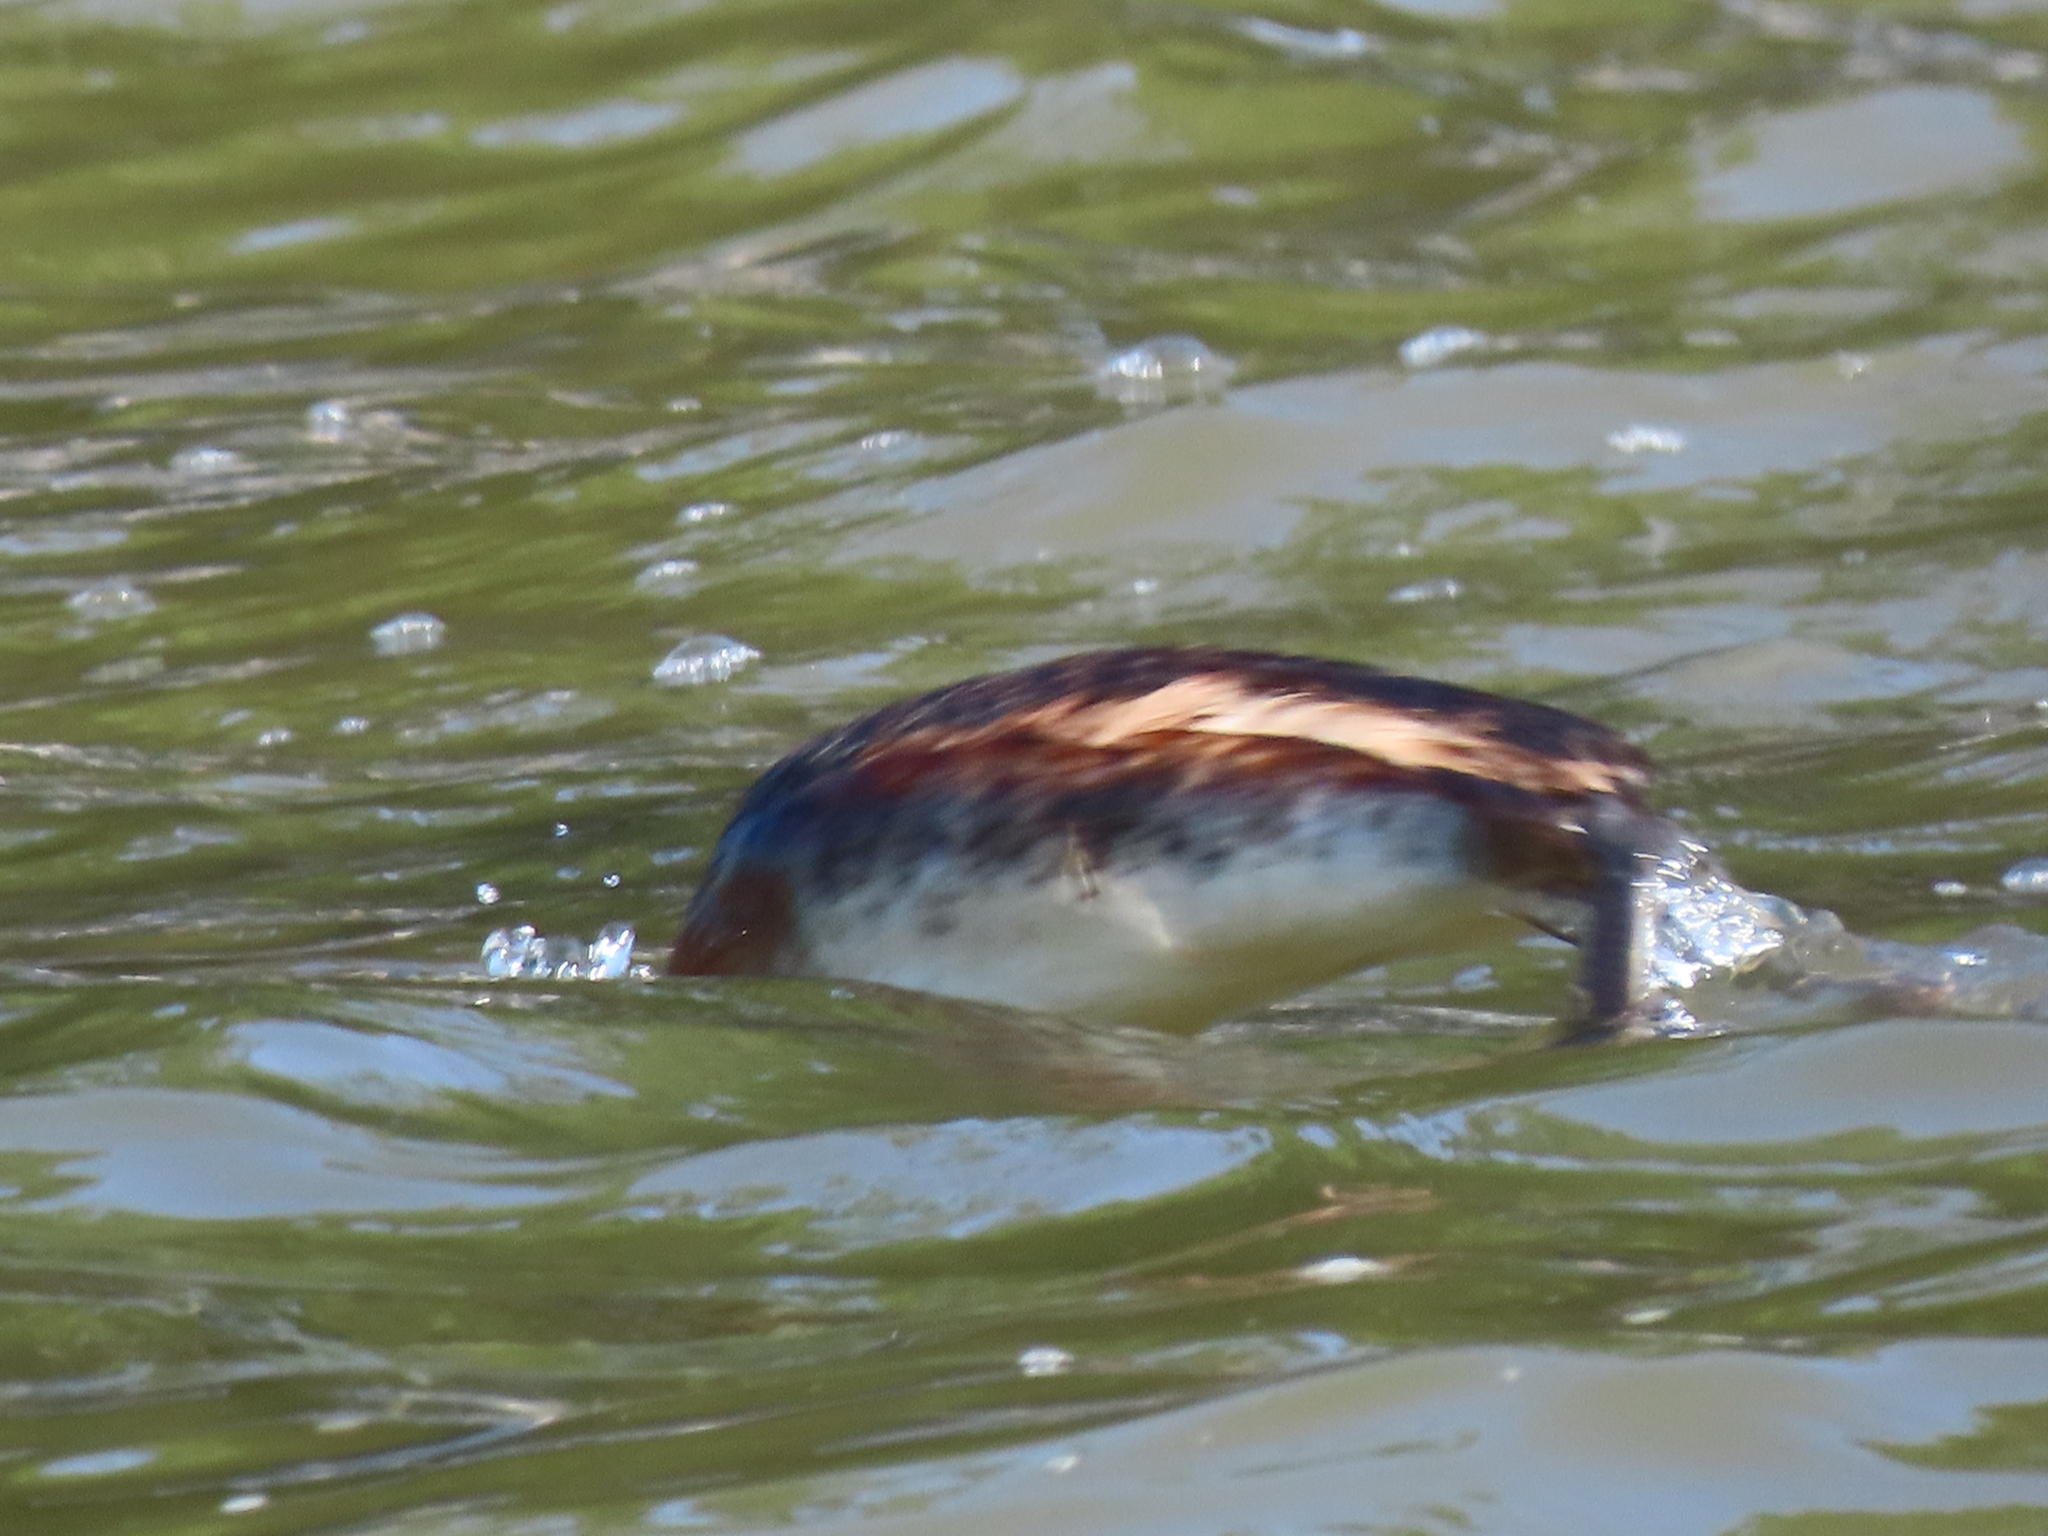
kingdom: Animalia
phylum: Chordata
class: Aves
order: Podicipediformes
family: Podicipedidae
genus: Podiceps
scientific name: Podiceps auritus
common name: Horned grebe
